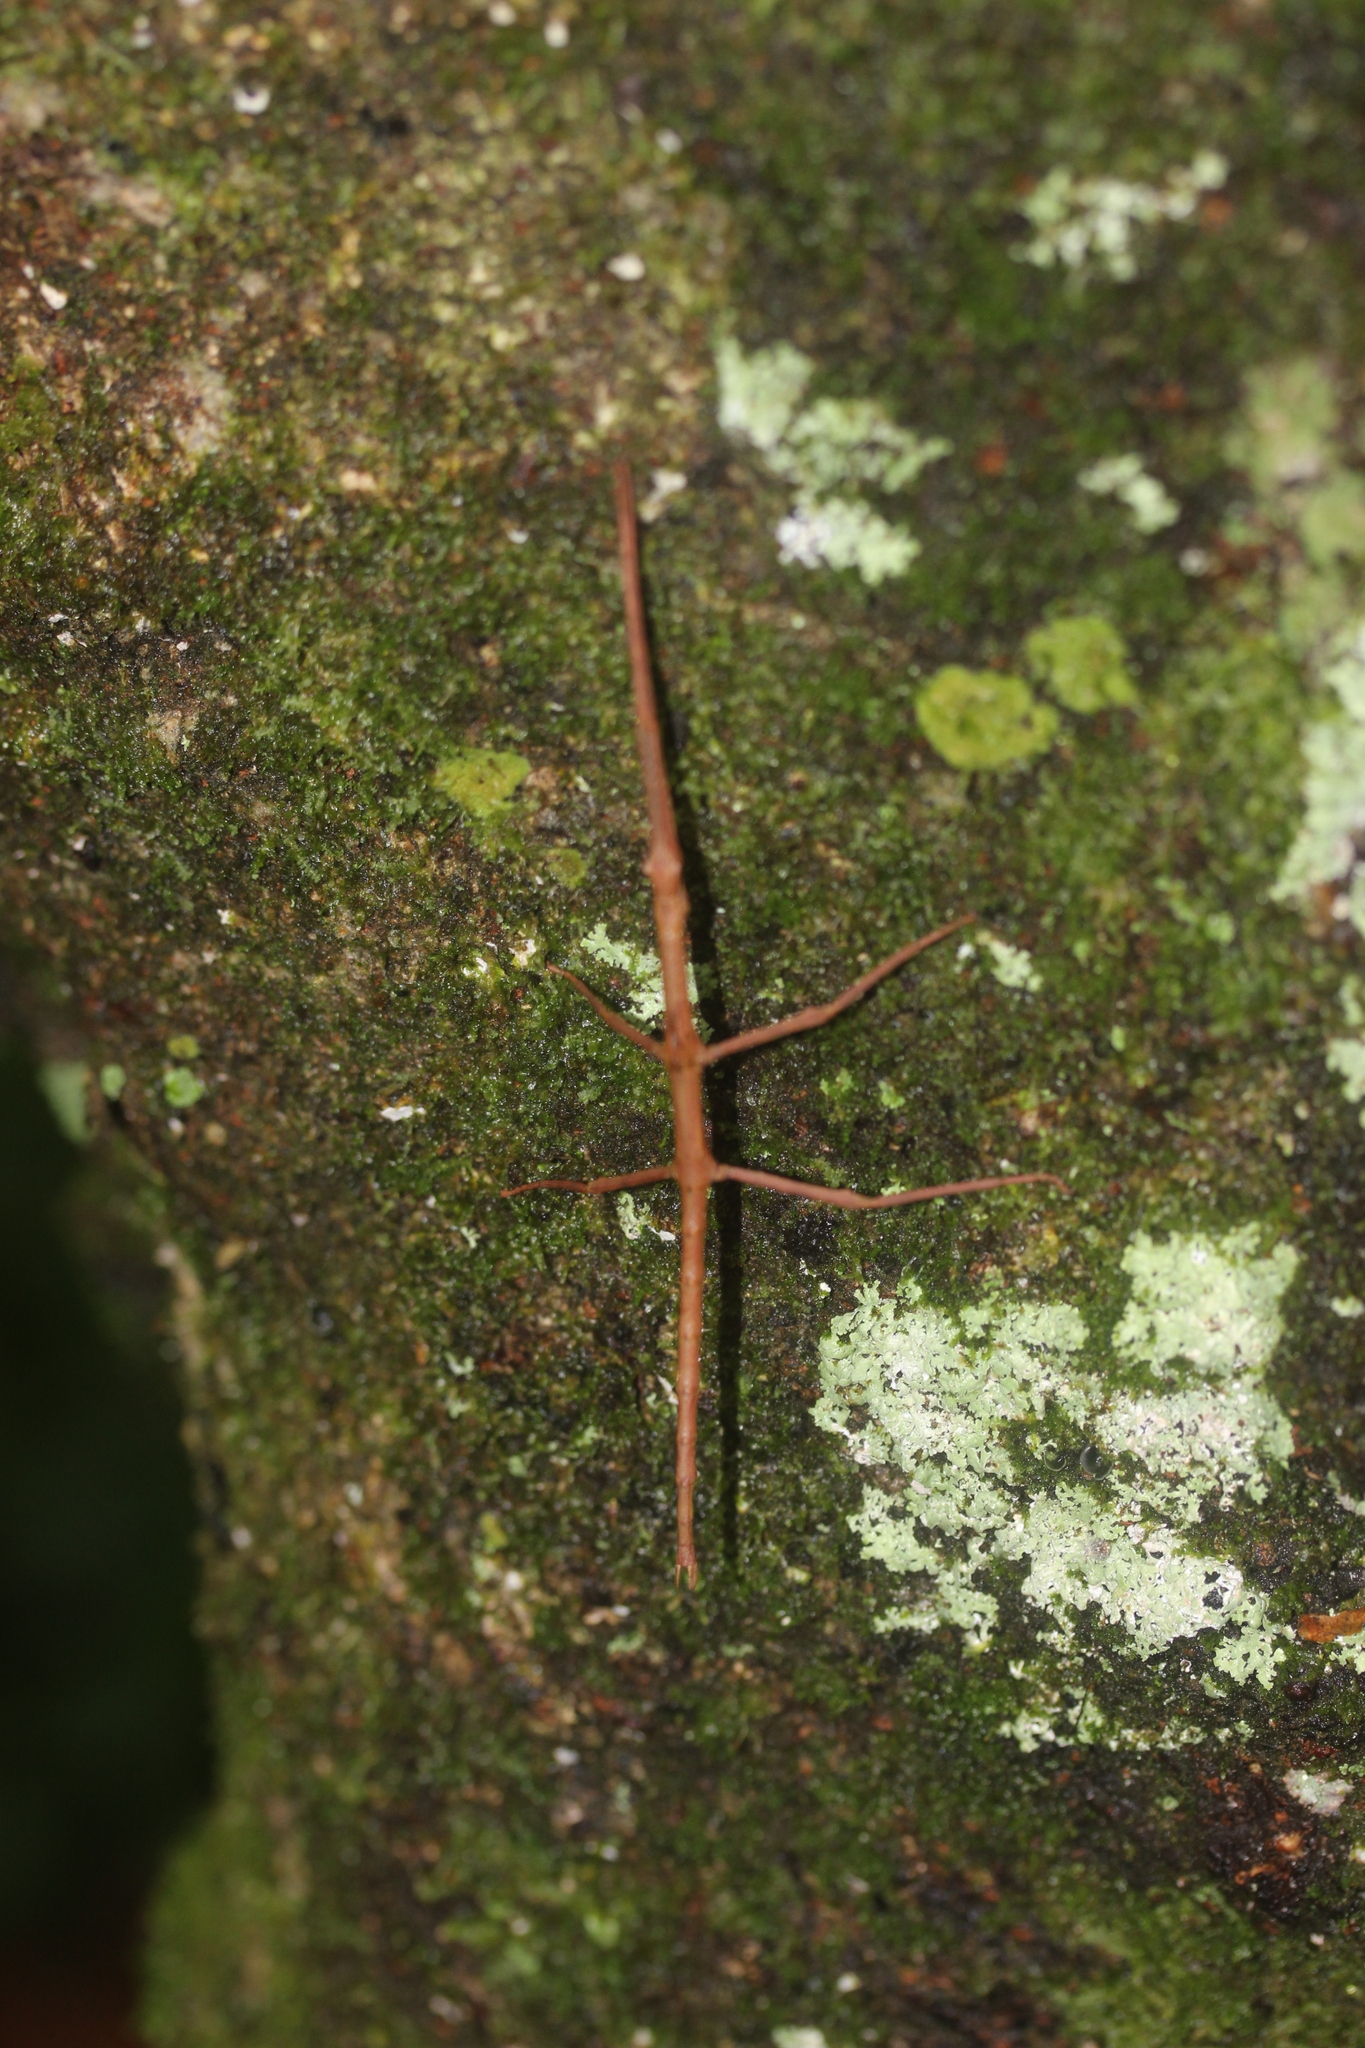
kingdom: Animalia
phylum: Arthropoda
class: Insecta
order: Phasmida
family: Phasmatidae
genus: Clitarchus
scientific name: Clitarchus hookeri
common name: Smooth stick insect
